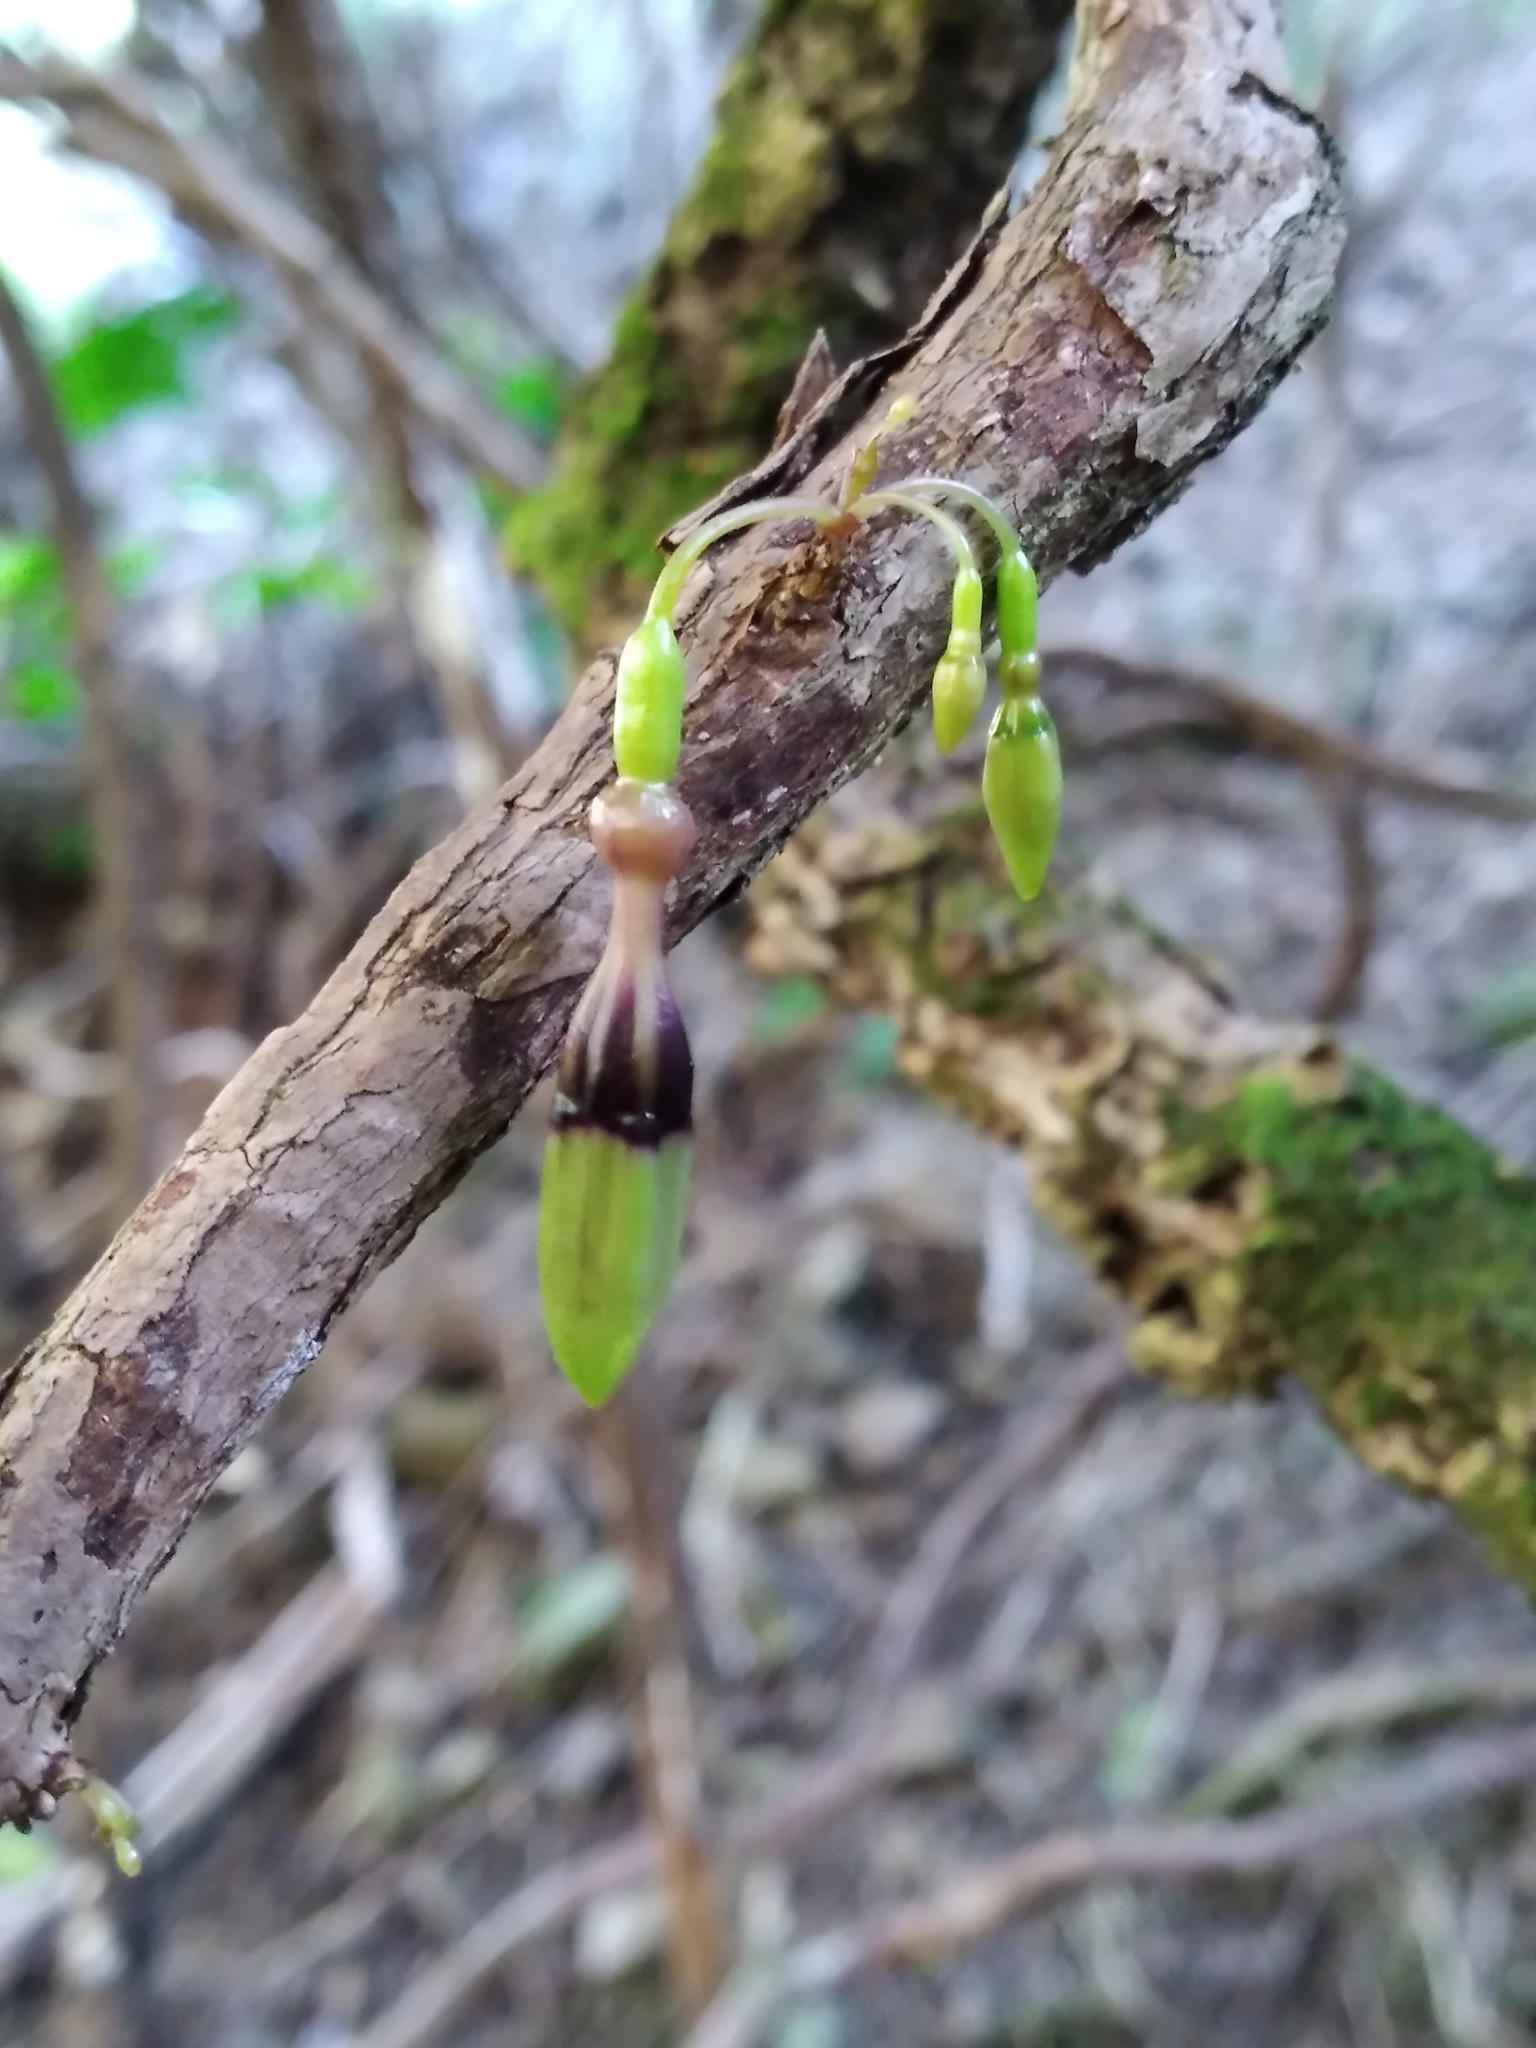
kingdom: Plantae
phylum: Tracheophyta
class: Magnoliopsida
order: Myrtales
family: Onagraceae
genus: Fuchsia
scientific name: Fuchsia perscandens
